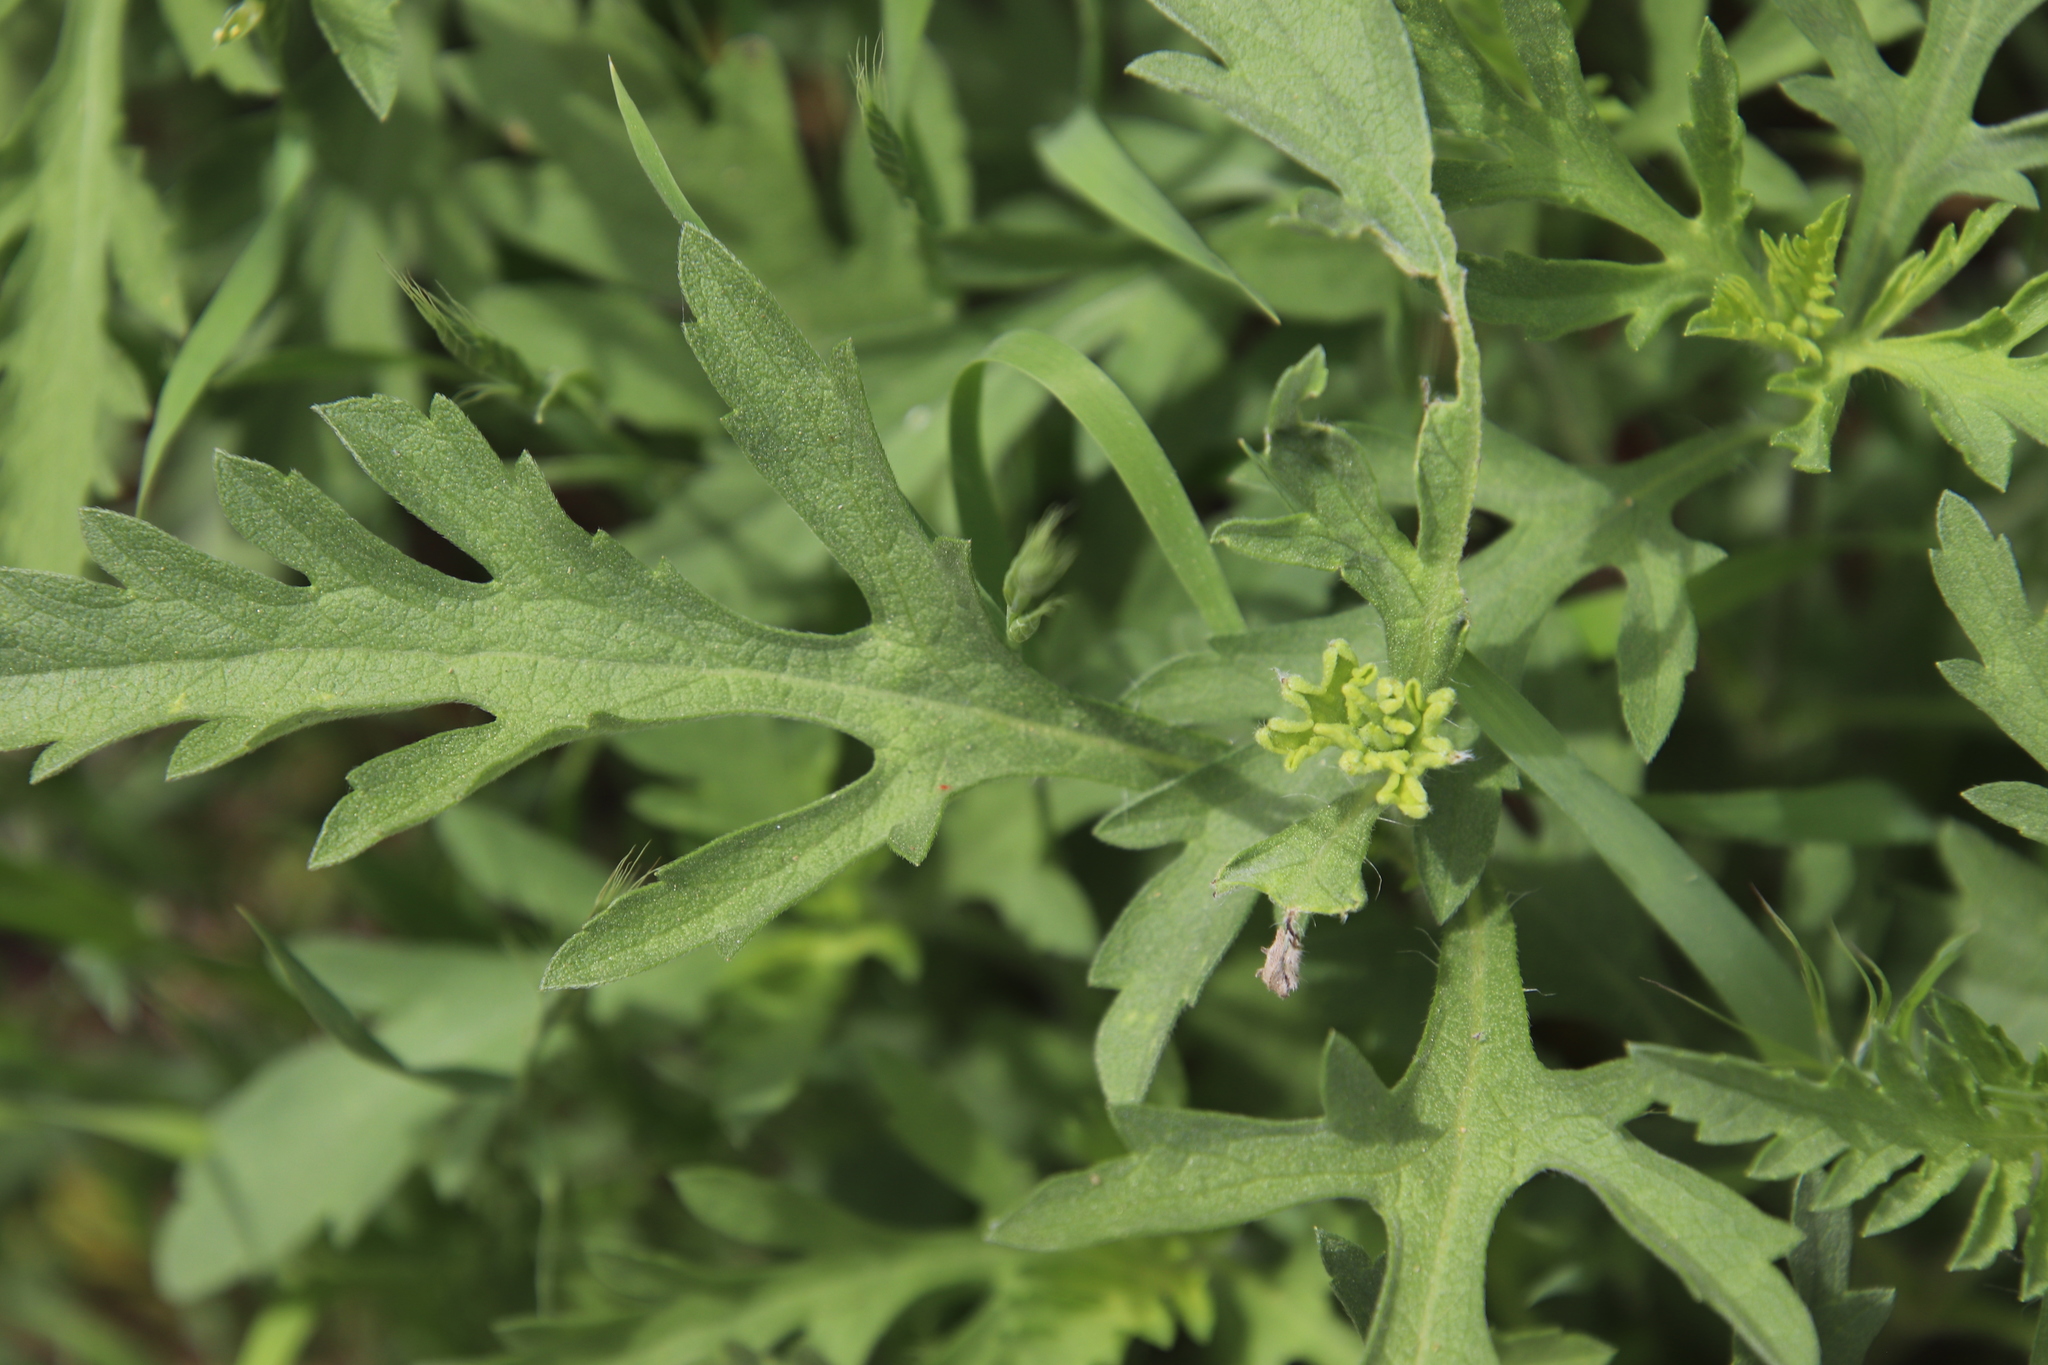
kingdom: Plantae
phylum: Tracheophyta
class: Magnoliopsida
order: Asterales
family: Asteraceae
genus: Ambrosia
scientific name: Ambrosia psilostachya
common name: Perennial ragweed
